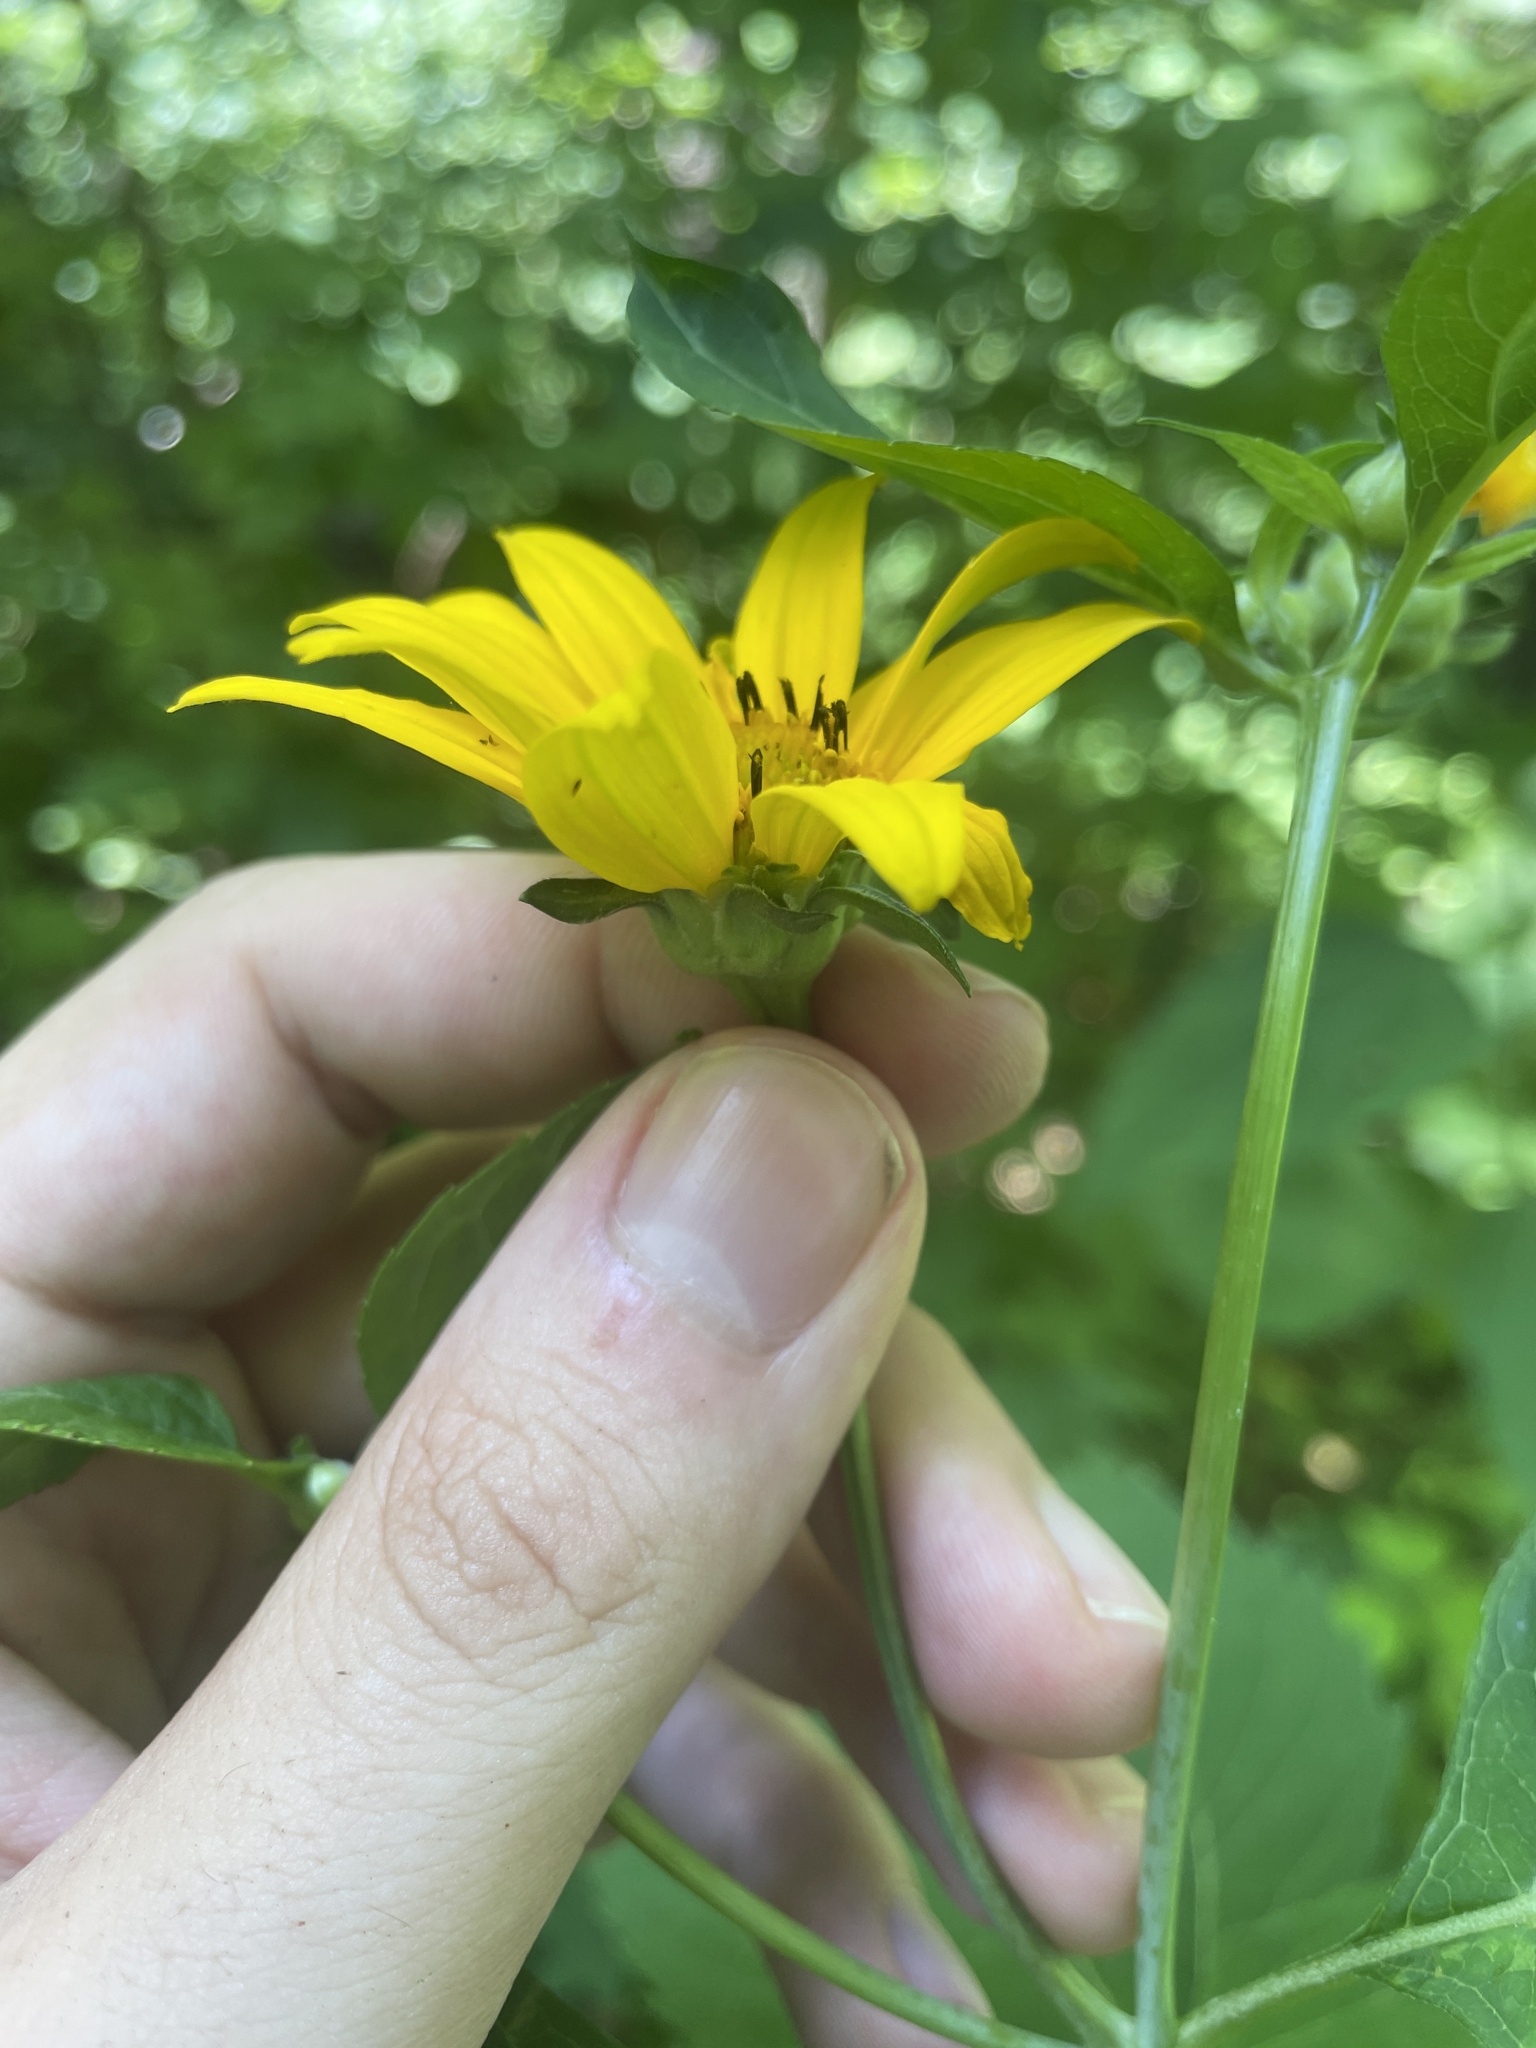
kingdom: Plantae
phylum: Tracheophyta
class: Magnoliopsida
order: Asterales
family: Asteraceae
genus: Heliopsis
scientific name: Heliopsis helianthoides
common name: False sunflower
